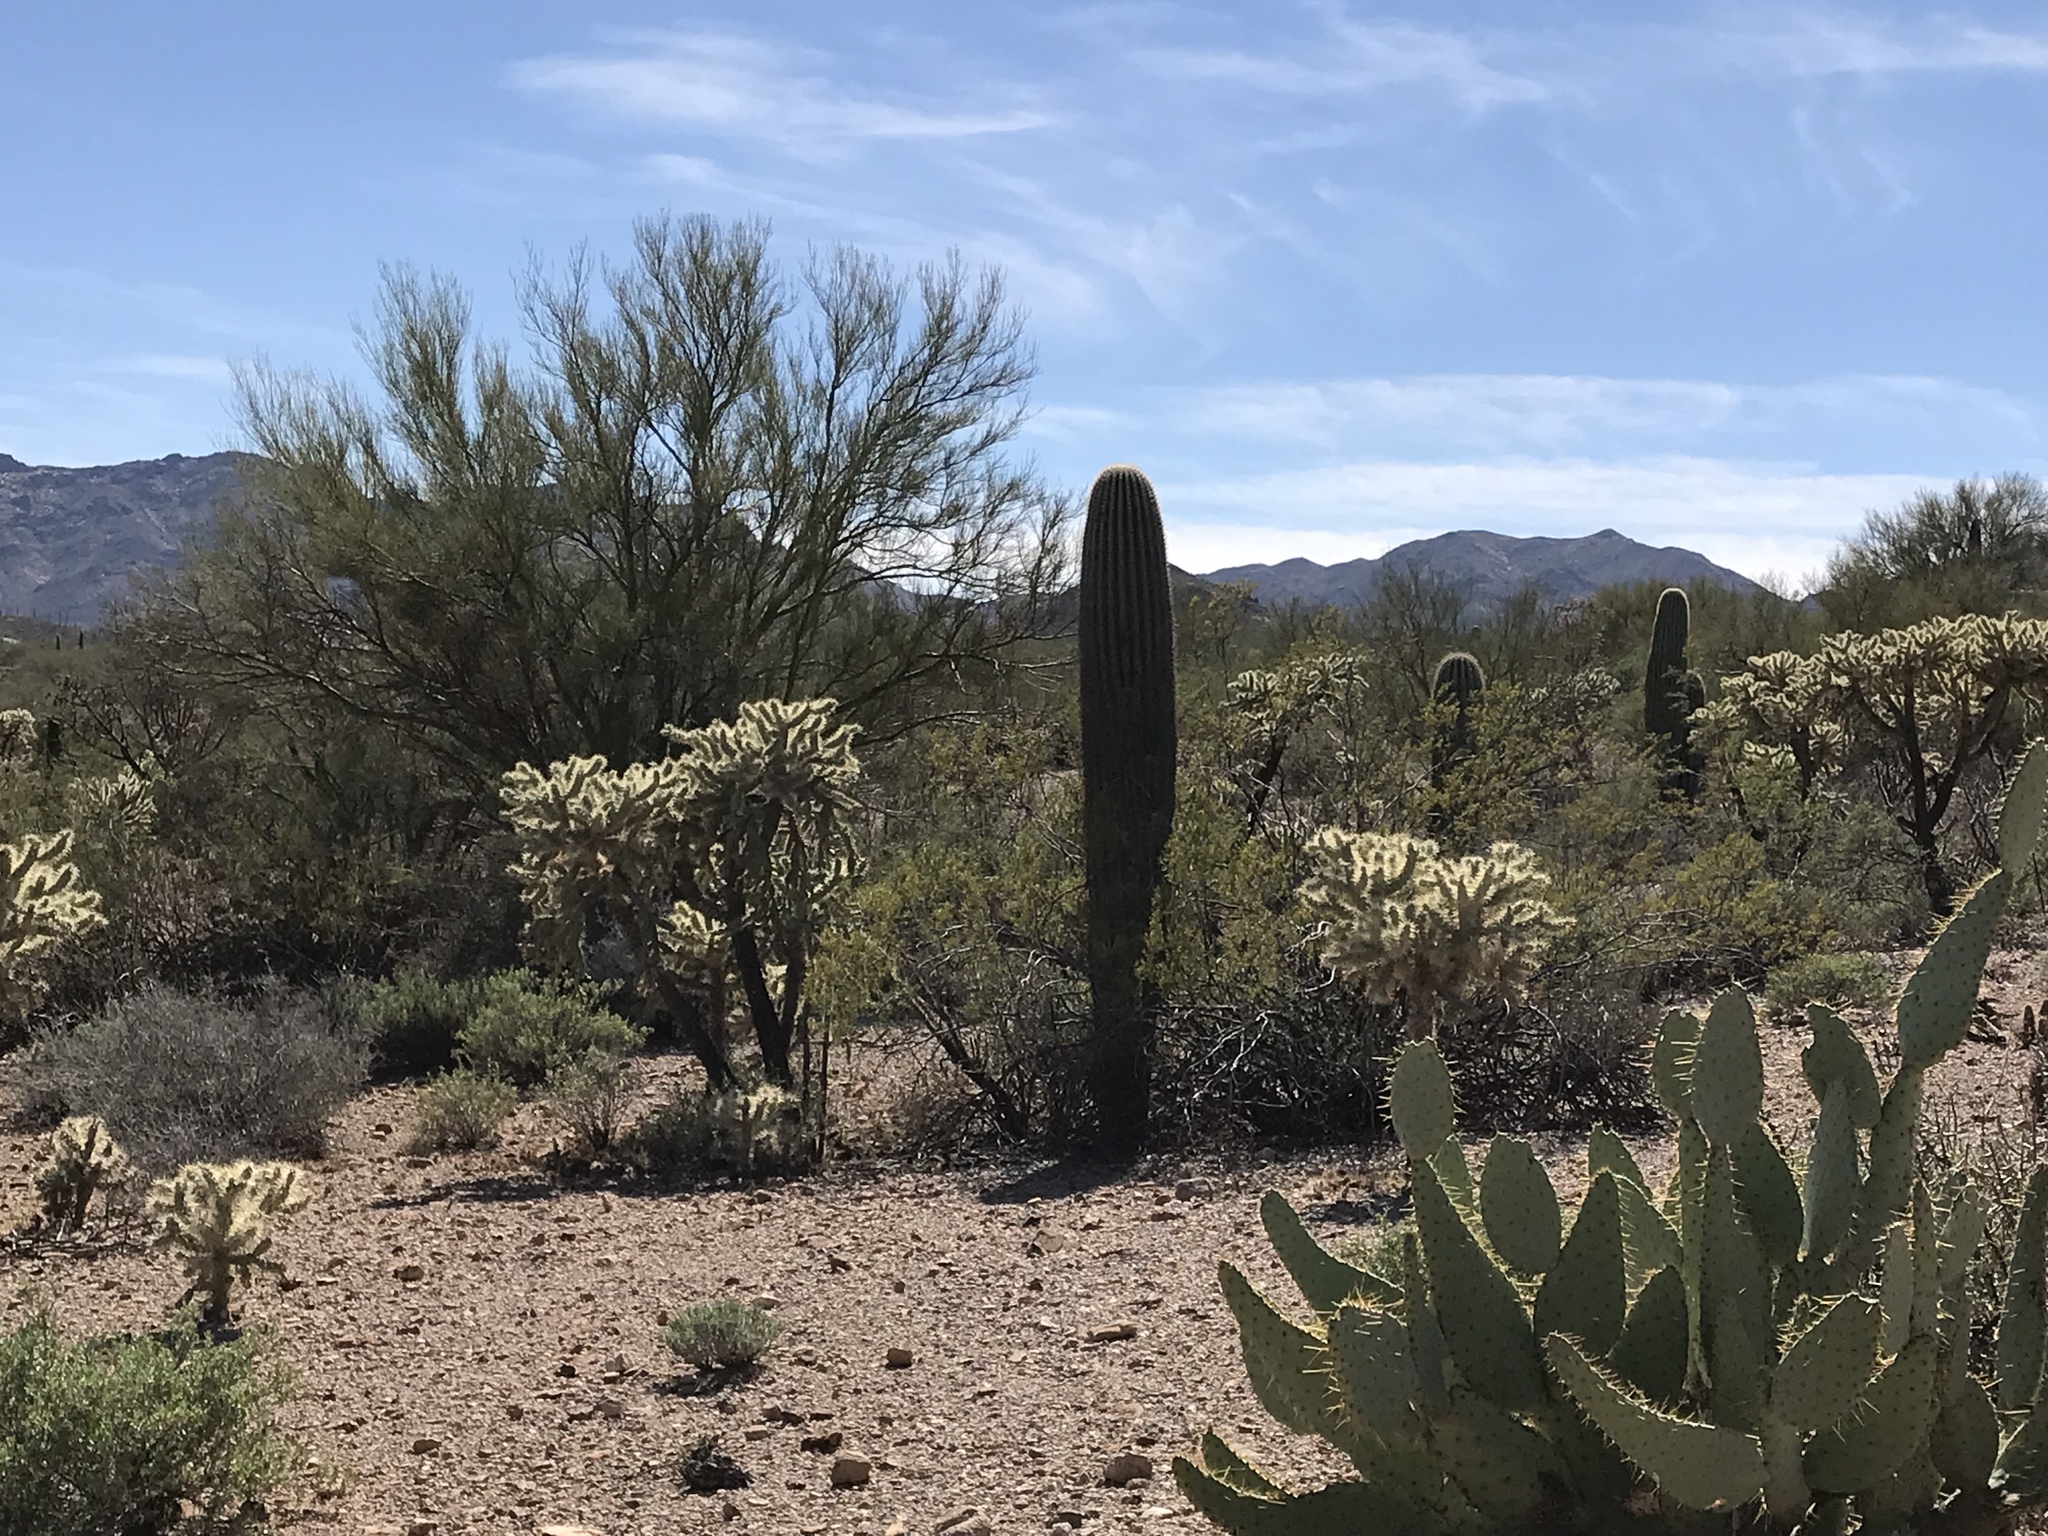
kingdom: Plantae
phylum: Tracheophyta
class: Magnoliopsida
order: Caryophyllales
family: Cactaceae
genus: Carnegiea
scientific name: Carnegiea gigantea
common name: Saguaro
